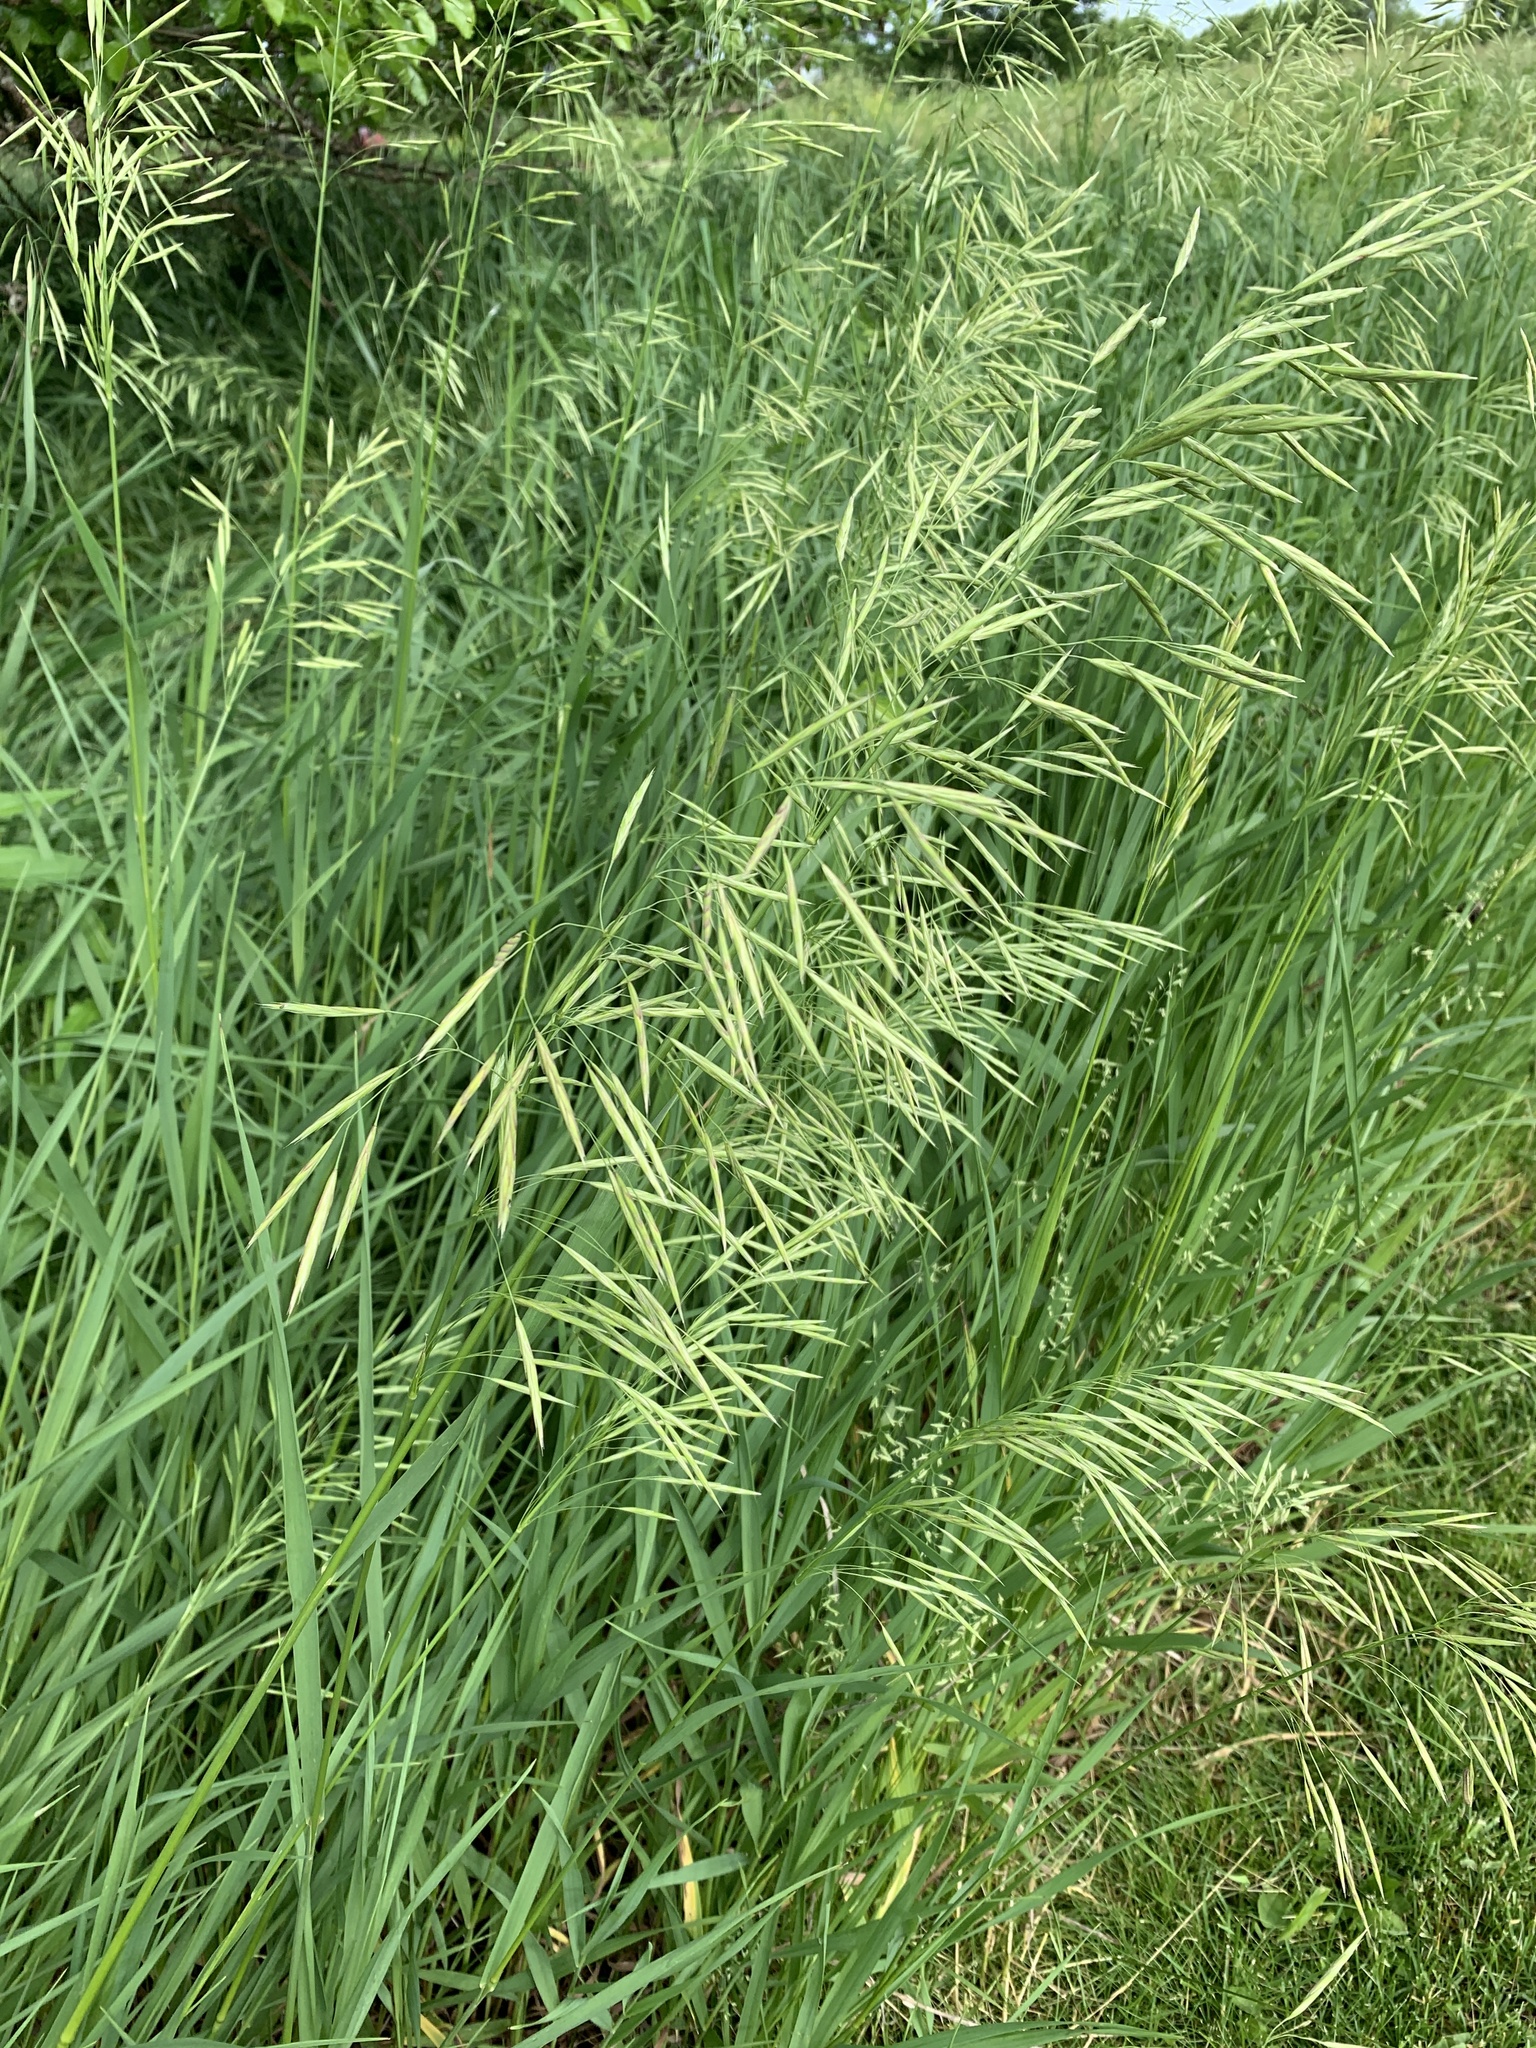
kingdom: Plantae
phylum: Tracheophyta
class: Liliopsida
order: Poales
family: Poaceae
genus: Bromus
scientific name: Bromus inermis
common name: Smooth brome
